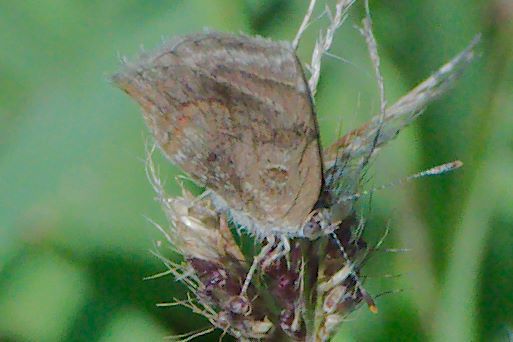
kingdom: Animalia
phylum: Arthropoda
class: Insecta
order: Lepidoptera
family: Lycaenidae
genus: Strymon
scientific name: Strymon bazochii
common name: Lantana scrub-hairstreak
